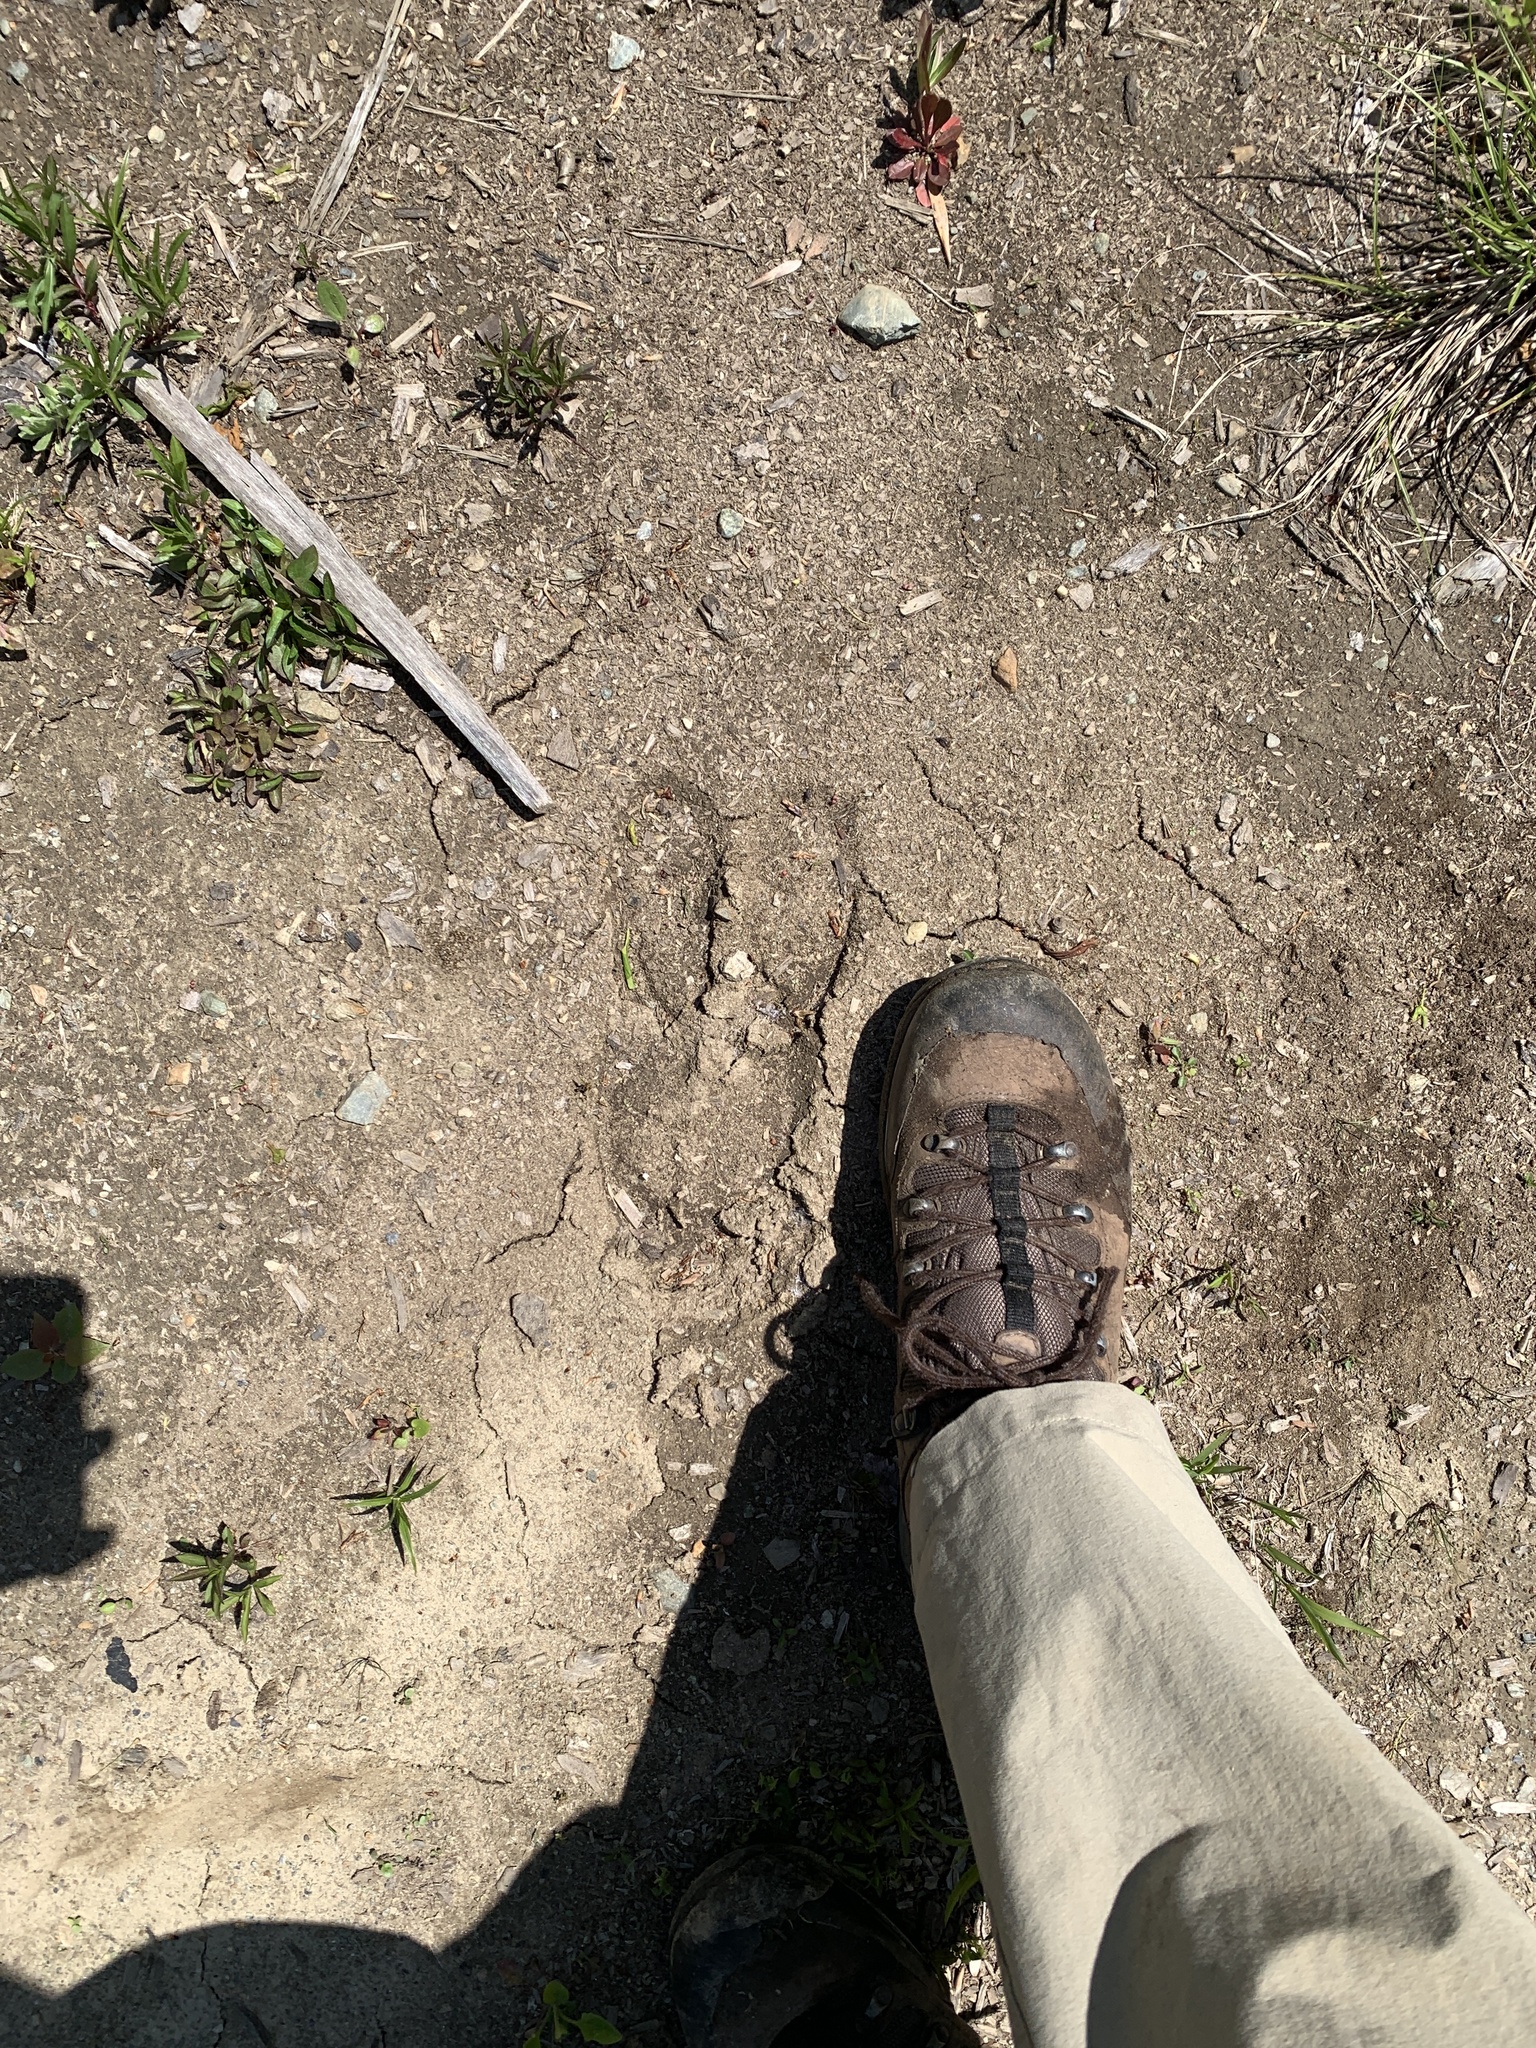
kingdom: Animalia
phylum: Chordata
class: Mammalia
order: Artiodactyla
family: Cervidae
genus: Alces
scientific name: Alces alces
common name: Moose
